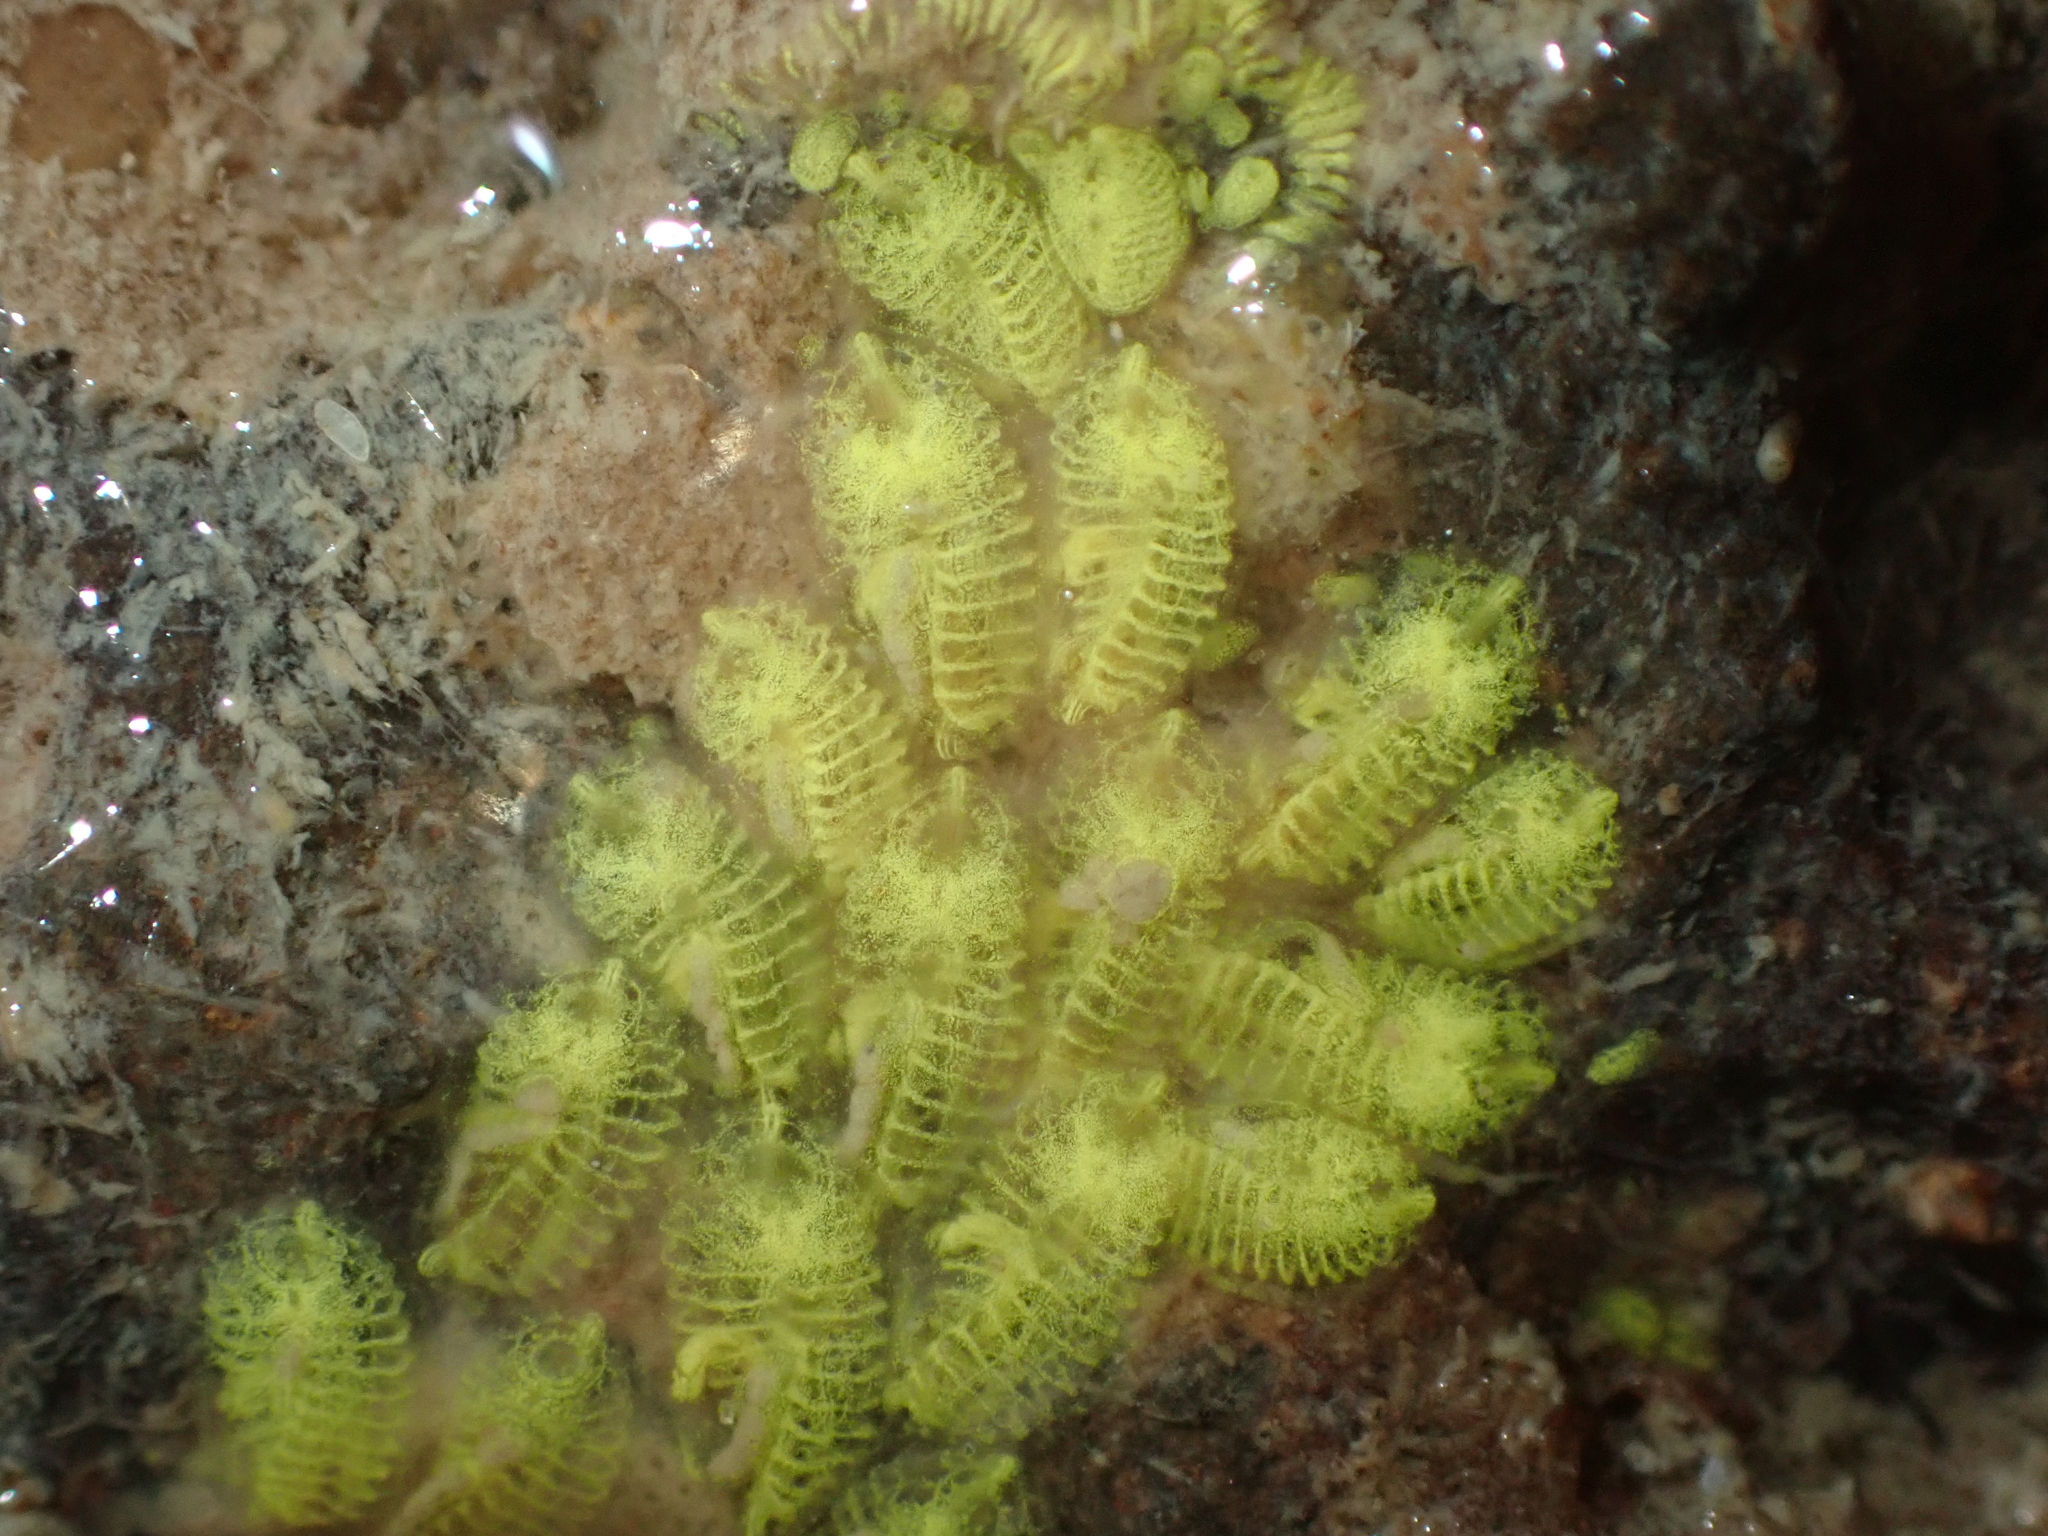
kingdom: Animalia
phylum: Chordata
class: Ascidiacea
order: Stolidobranchia
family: Styelidae
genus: Symplegma
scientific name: Symplegma brakenhielmi
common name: Ascidian
